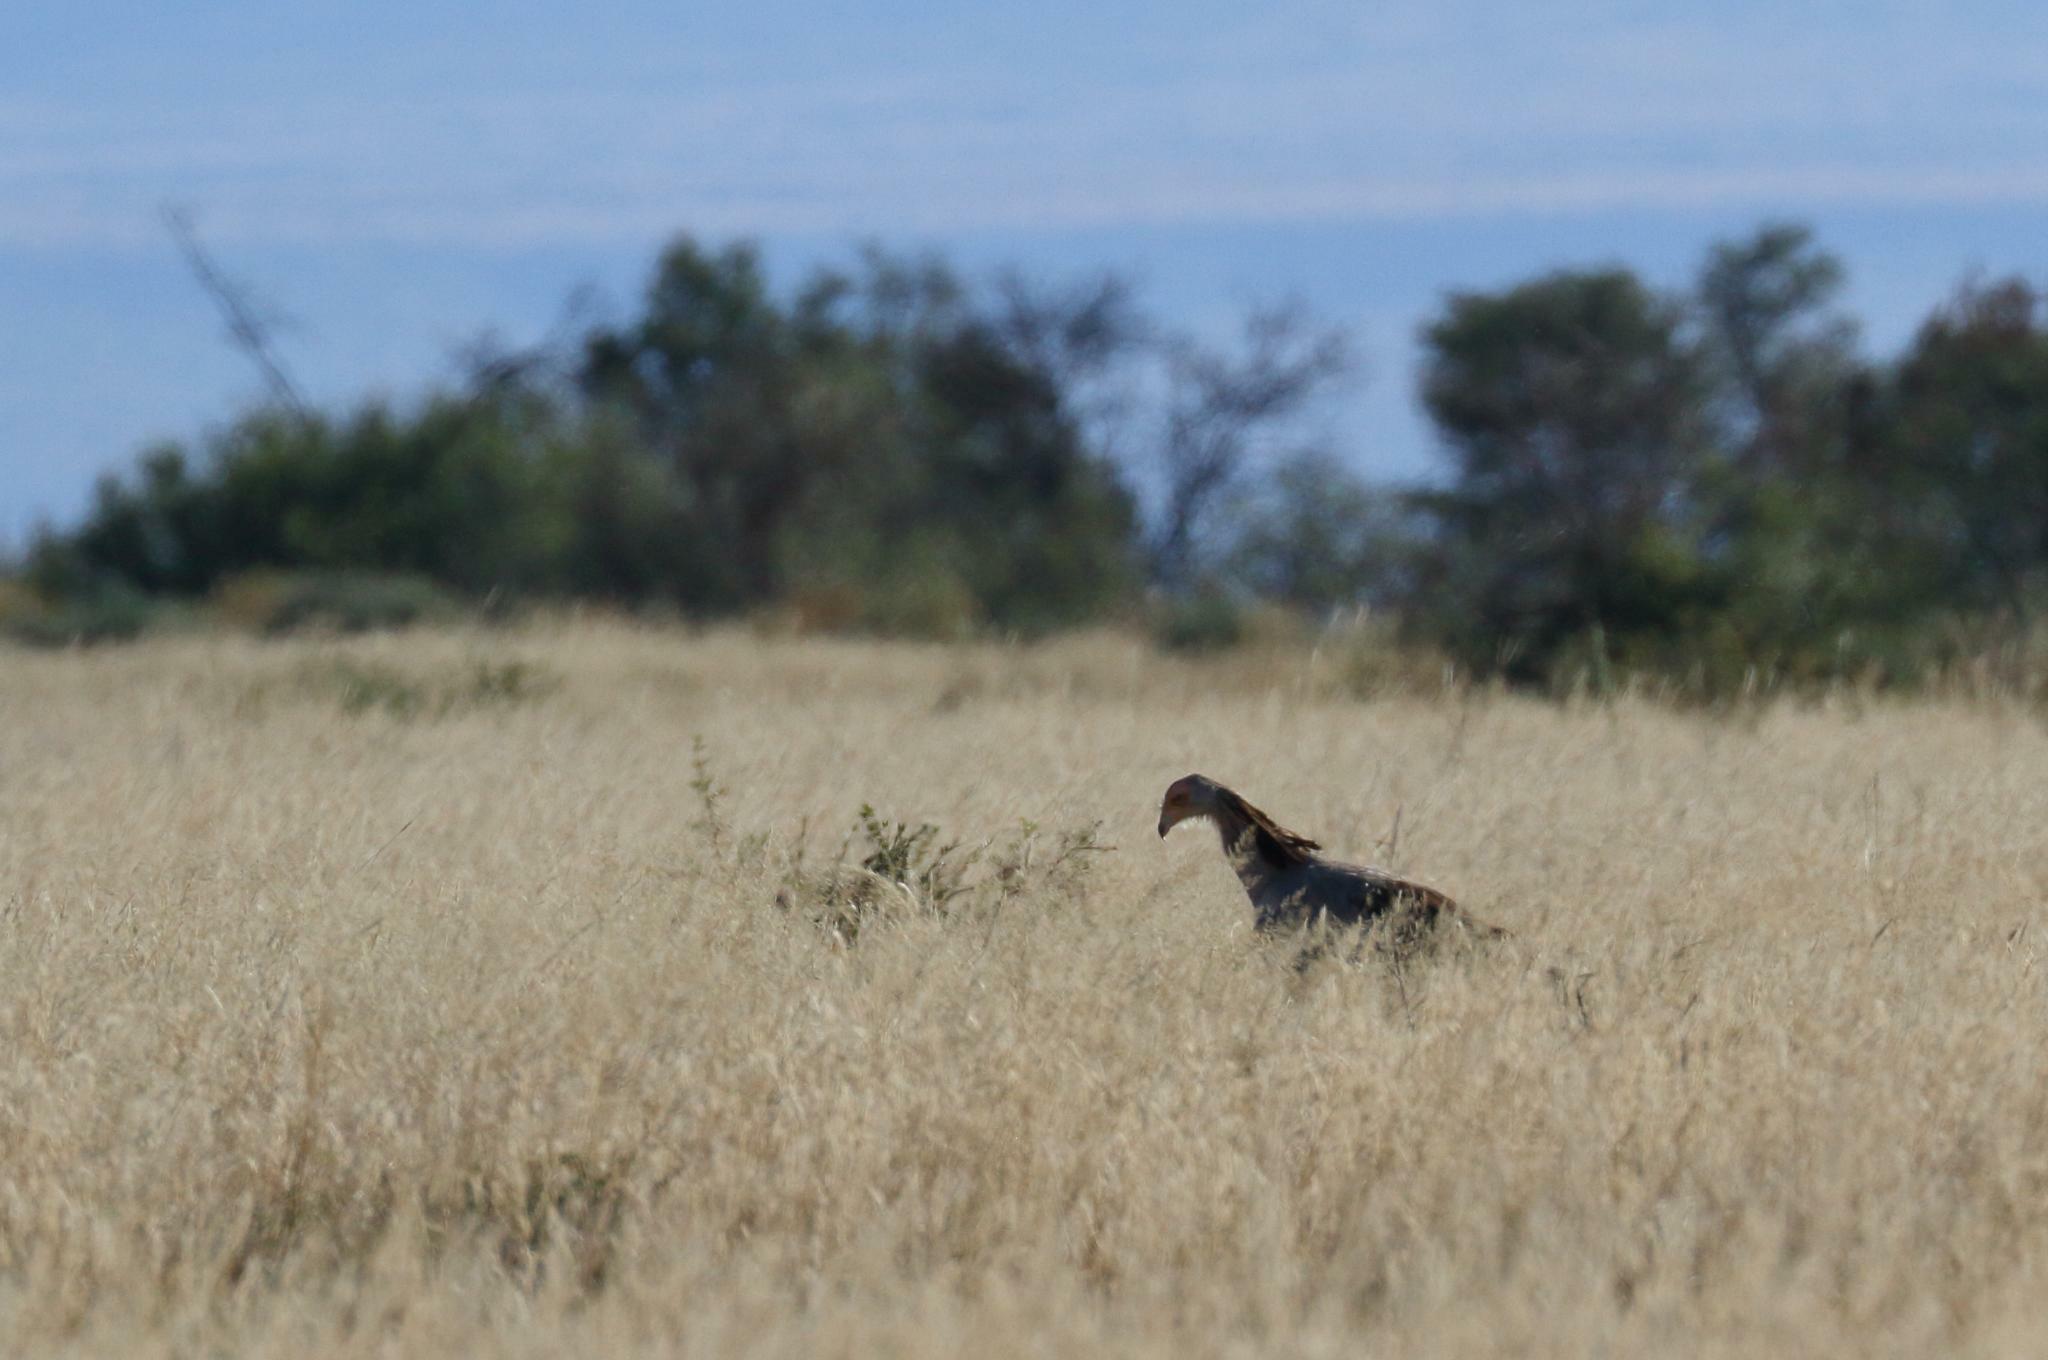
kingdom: Animalia
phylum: Chordata
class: Aves
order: Accipitriformes
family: Sagittariidae
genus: Sagittarius
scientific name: Sagittarius serpentarius
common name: Secretarybird
